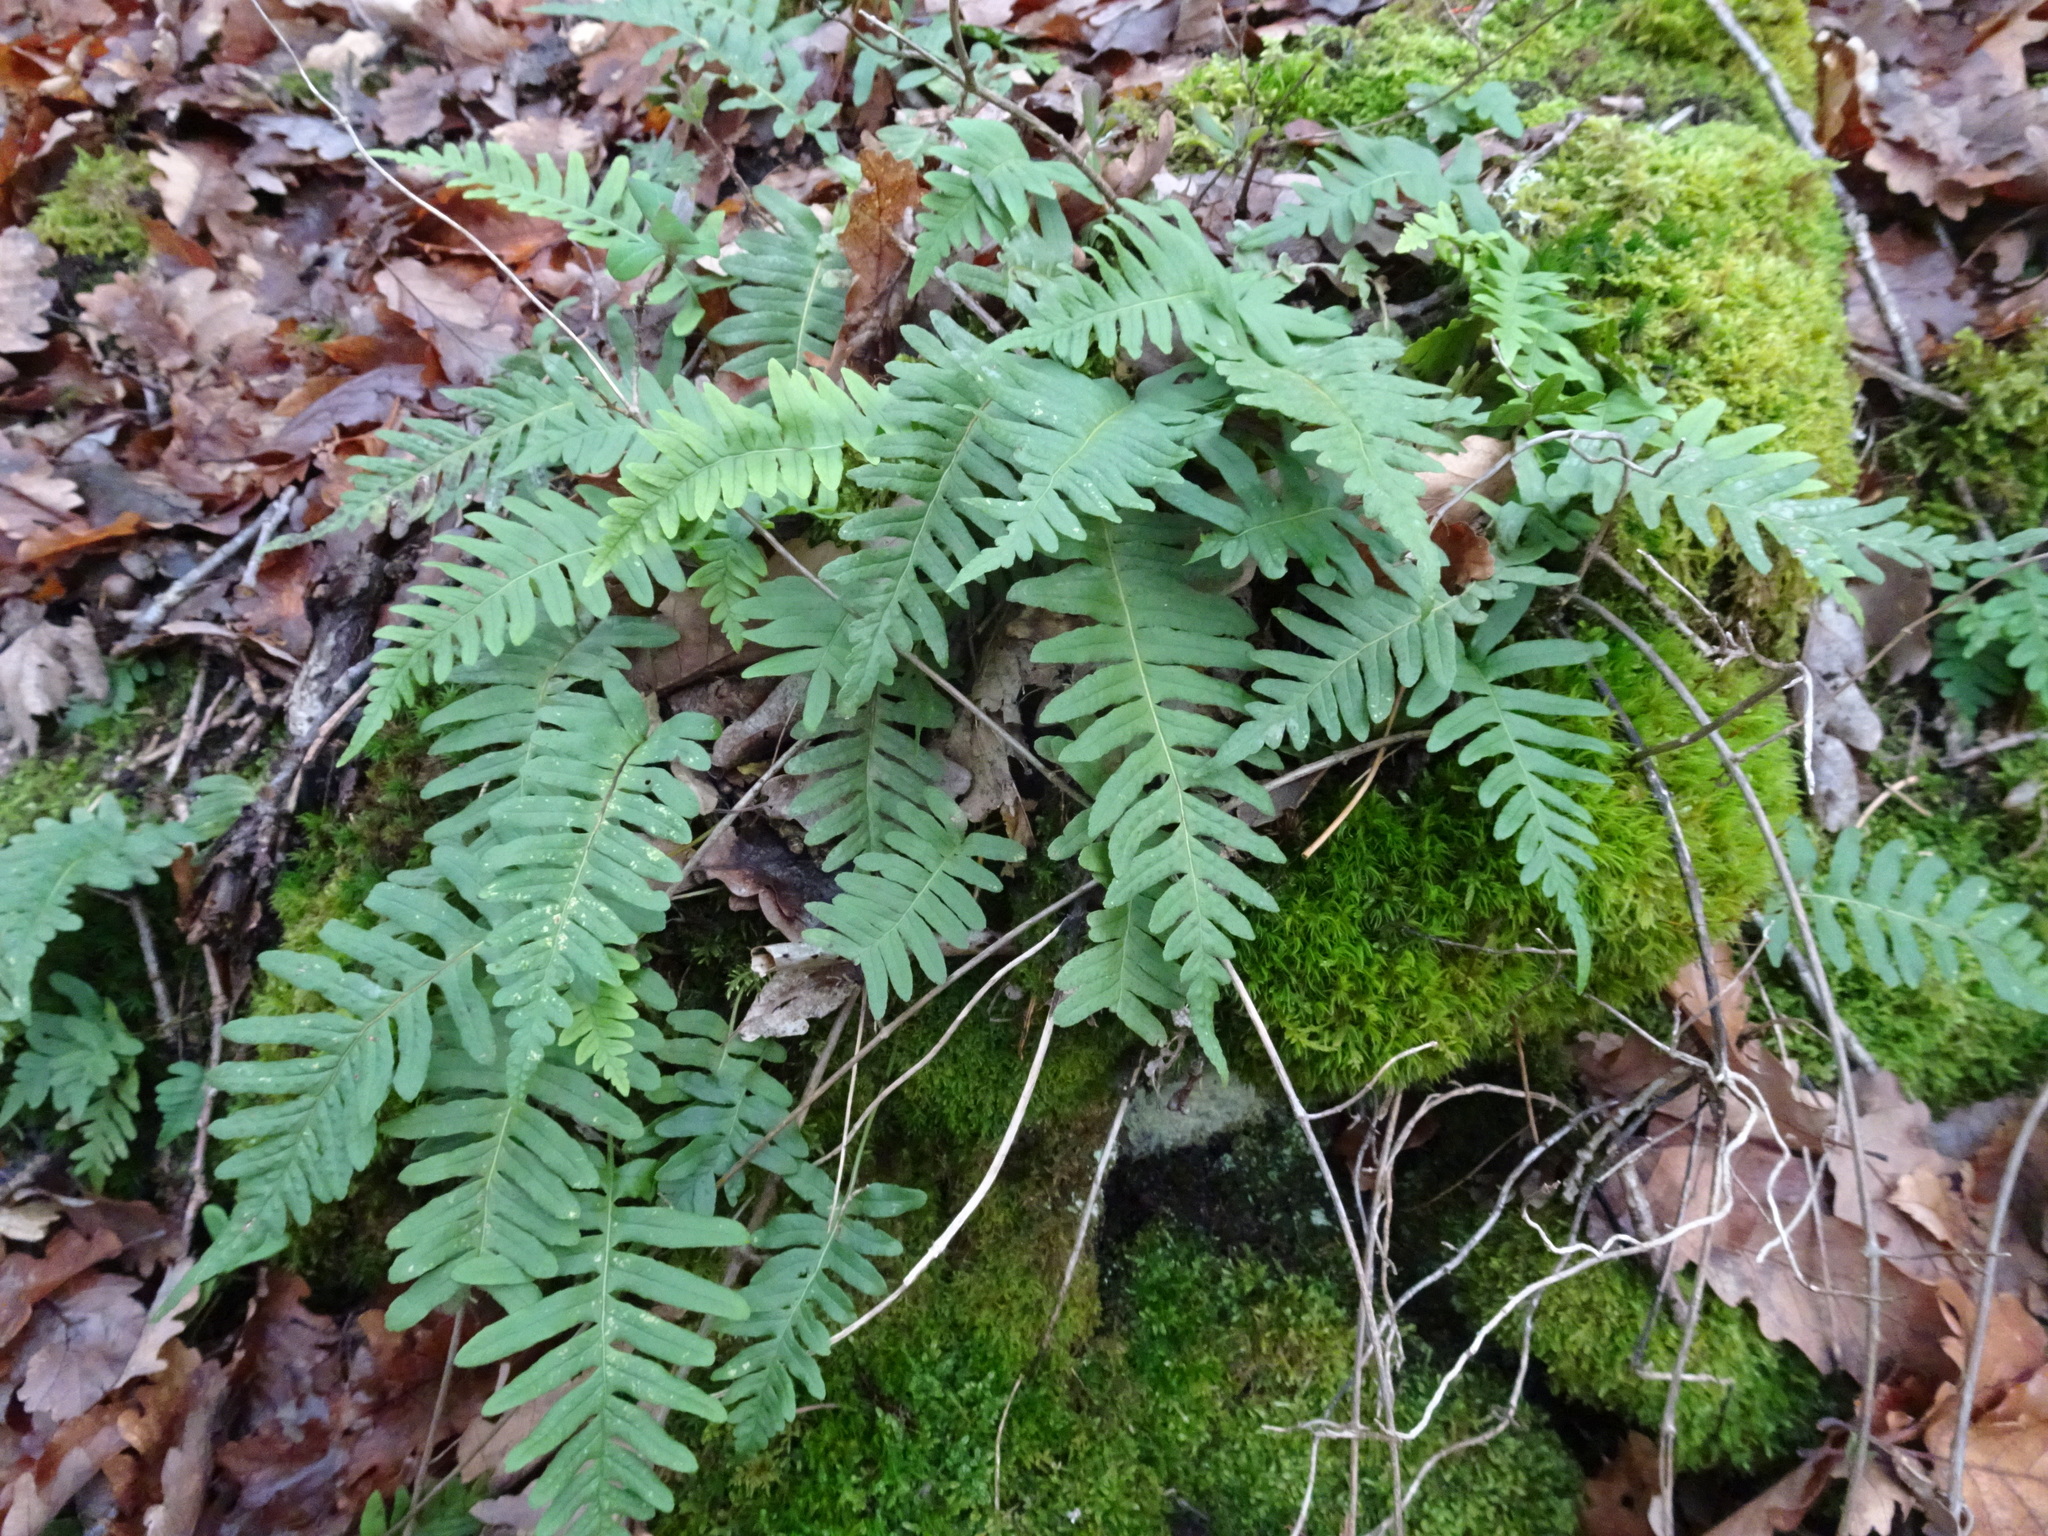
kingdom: Plantae
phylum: Tracheophyta
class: Polypodiopsida
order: Polypodiales
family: Polypodiaceae
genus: Polypodium
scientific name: Polypodium vulgare
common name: Common polypody
